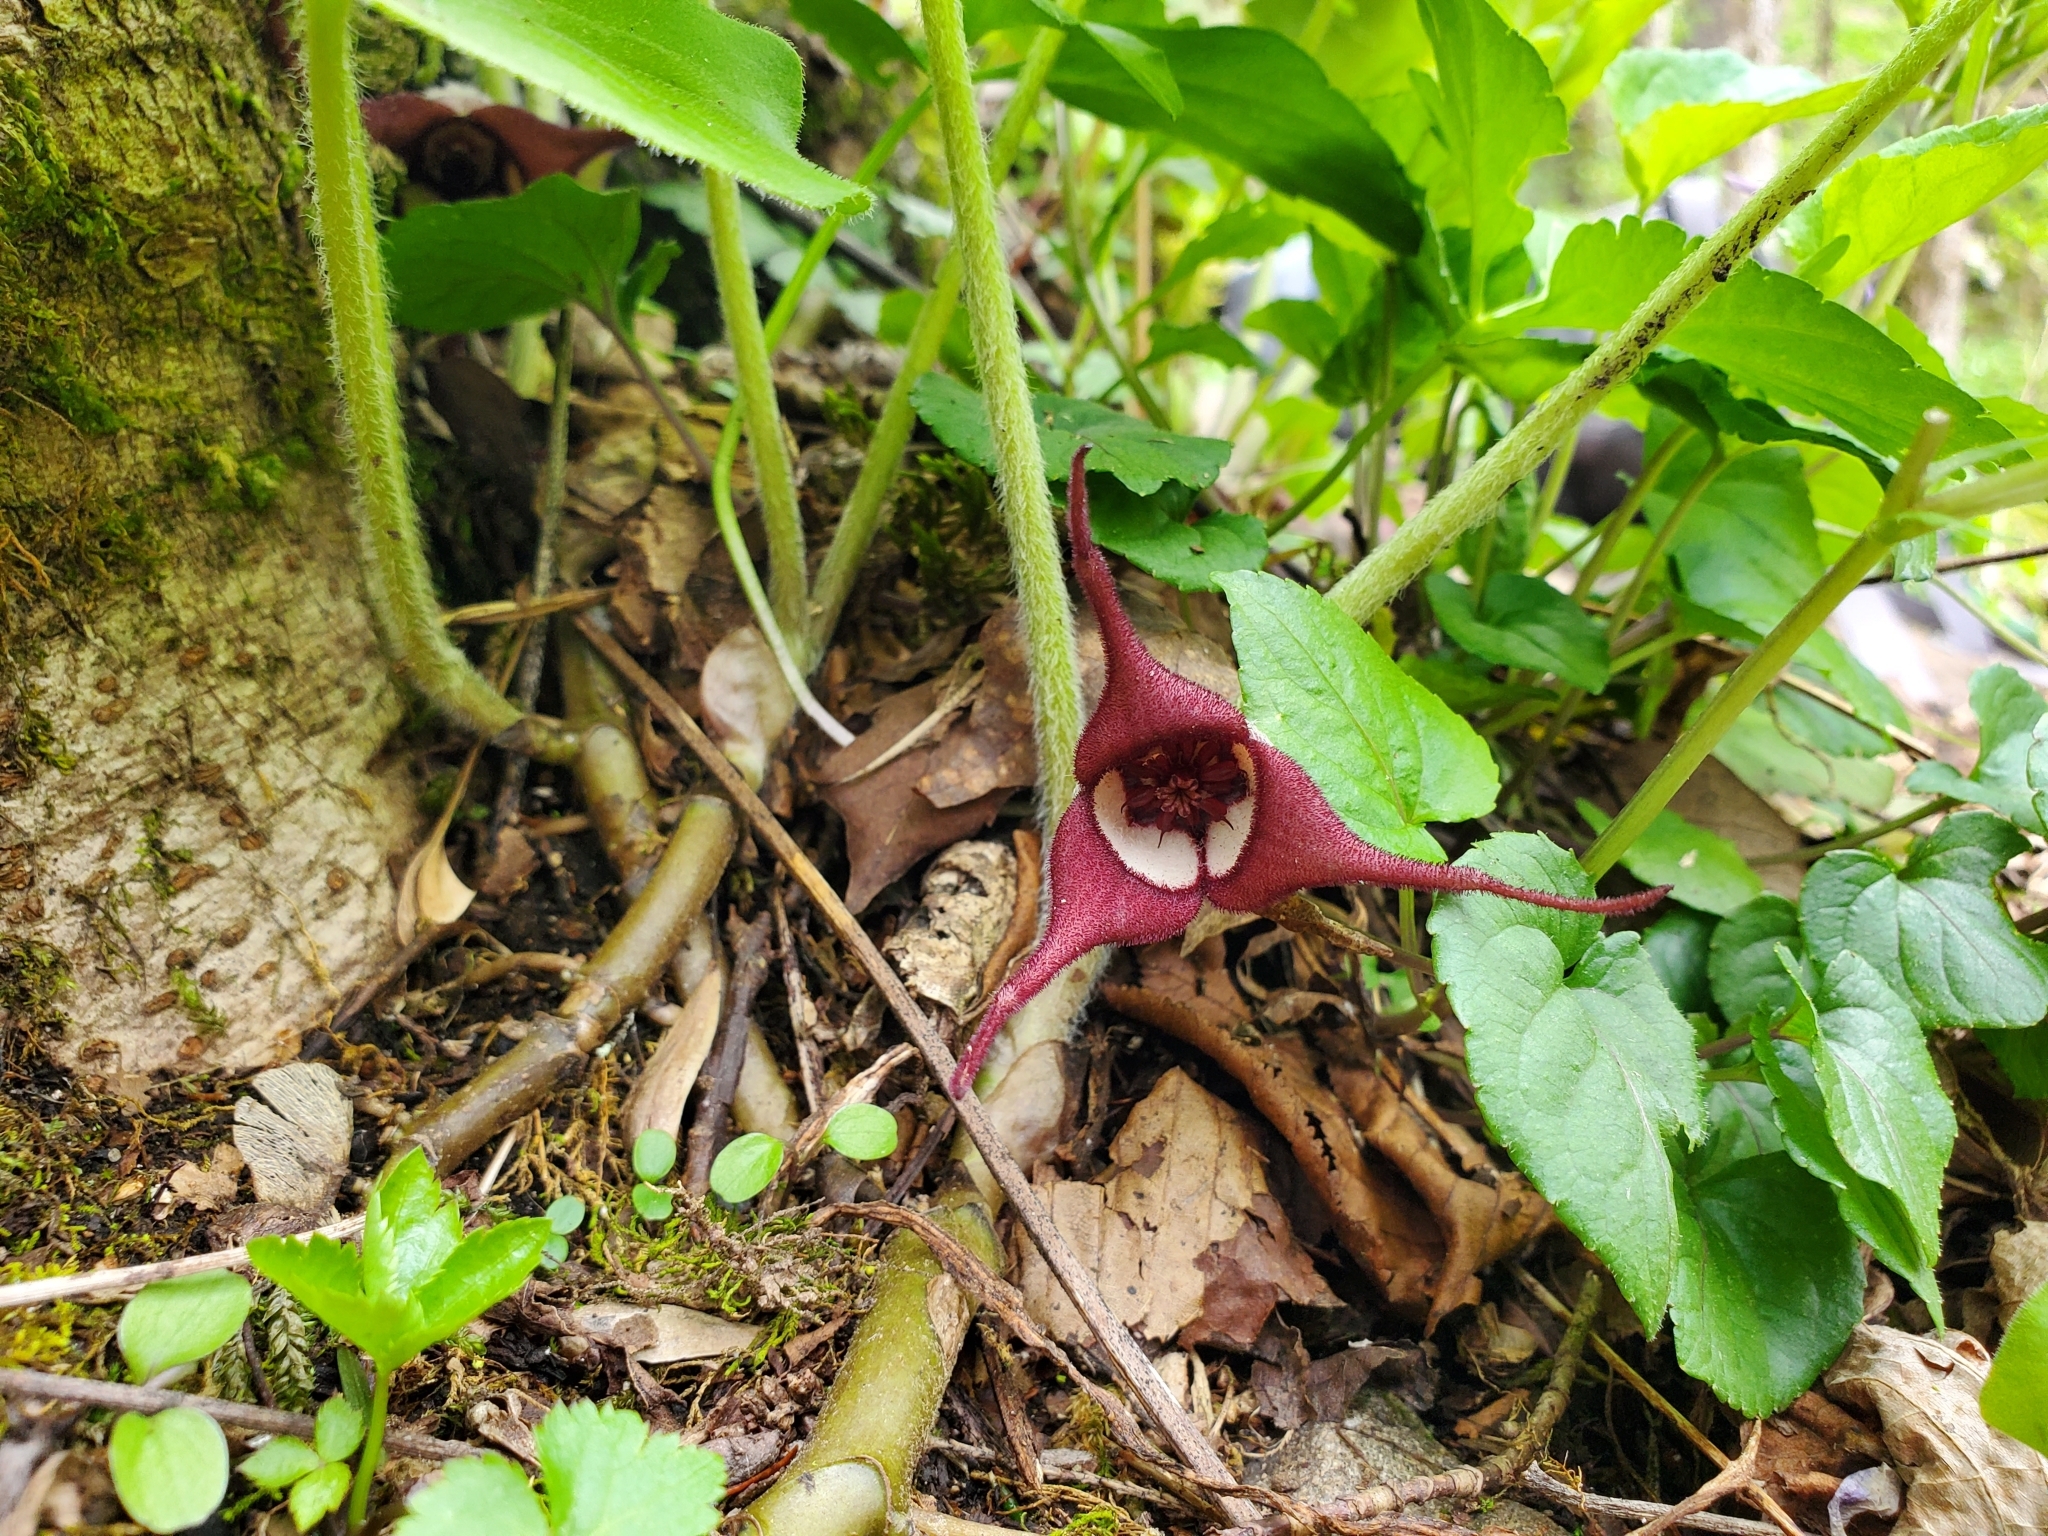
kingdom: Plantae
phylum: Tracheophyta
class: Magnoliopsida
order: Piperales
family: Aristolochiaceae
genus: Asarum
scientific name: Asarum canadense
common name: Wild ginger
